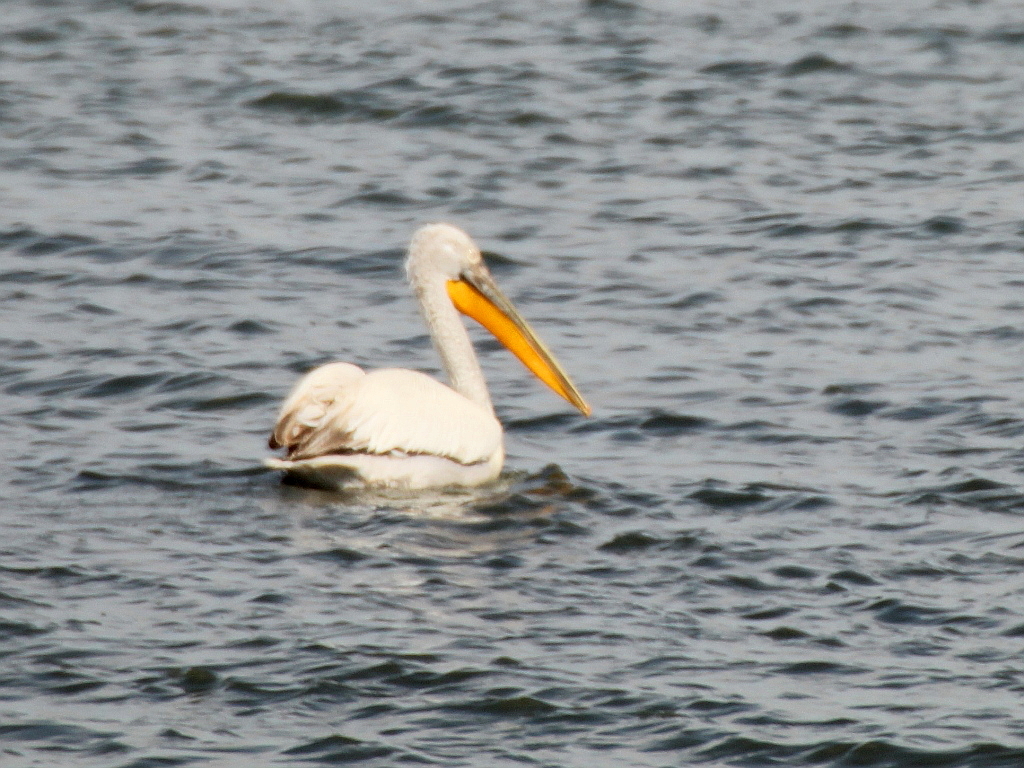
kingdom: Animalia
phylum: Chordata
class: Aves
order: Pelecaniformes
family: Pelecanidae
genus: Pelecanus
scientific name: Pelecanus crispus
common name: Dalmatian pelican
